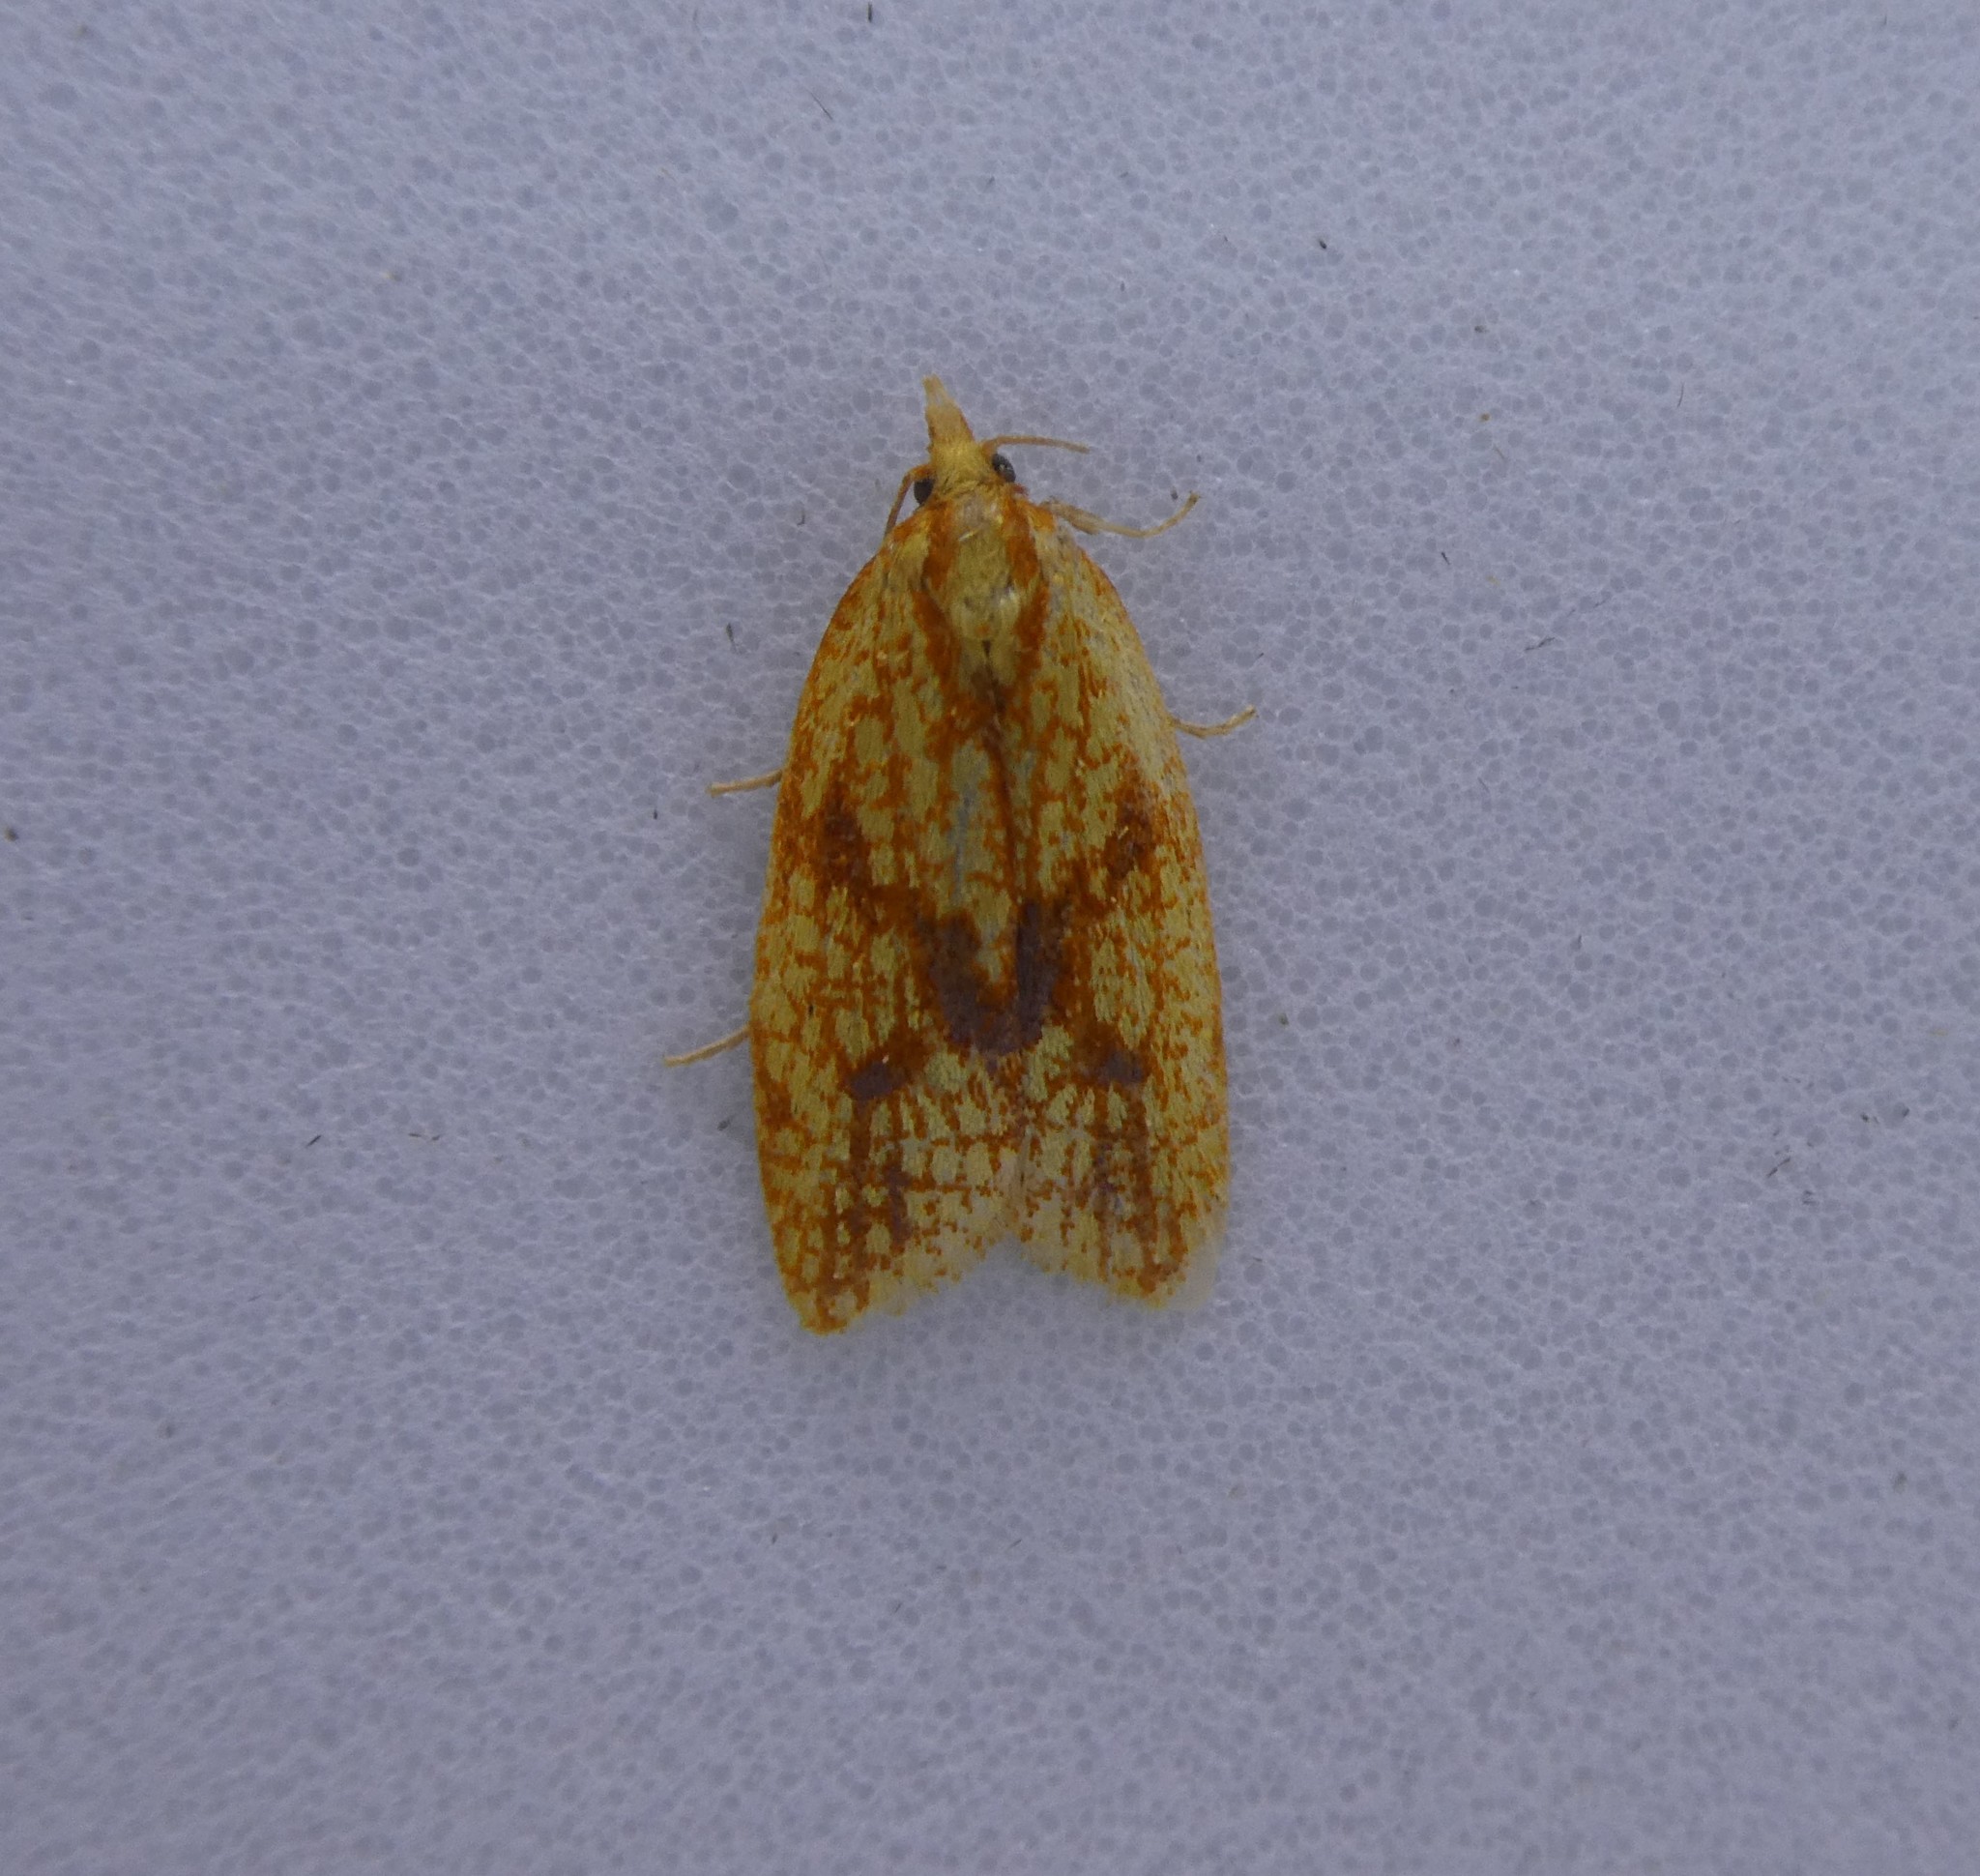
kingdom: Animalia
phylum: Arthropoda
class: Insecta
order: Lepidoptera
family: Tortricidae
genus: Sparganothis
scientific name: Sparganothis sulfureana
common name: Sparganothis fruitworm moth
